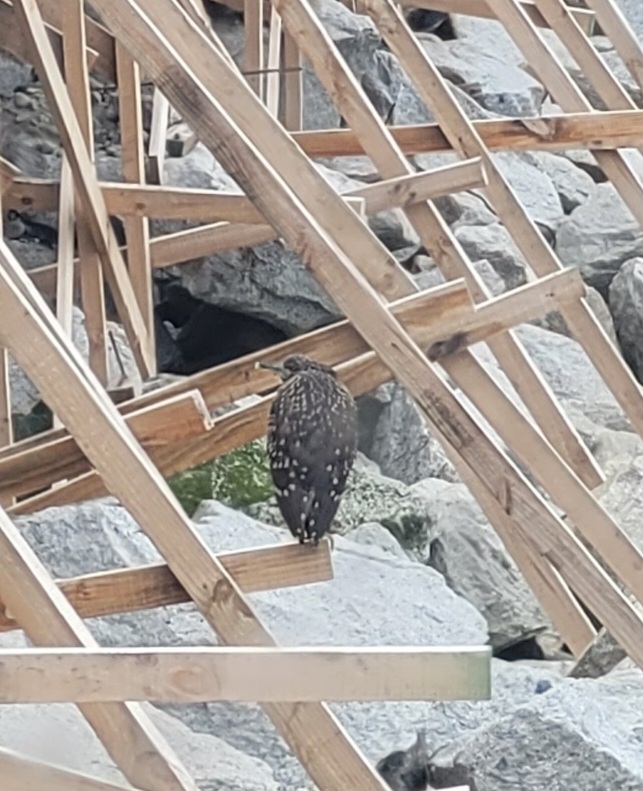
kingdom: Animalia
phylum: Chordata
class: Aves
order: Pelecaniformes
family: Ardeidae
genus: Nycticorax
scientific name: Nycticorax nycticorax
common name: Black-crowned night heron
